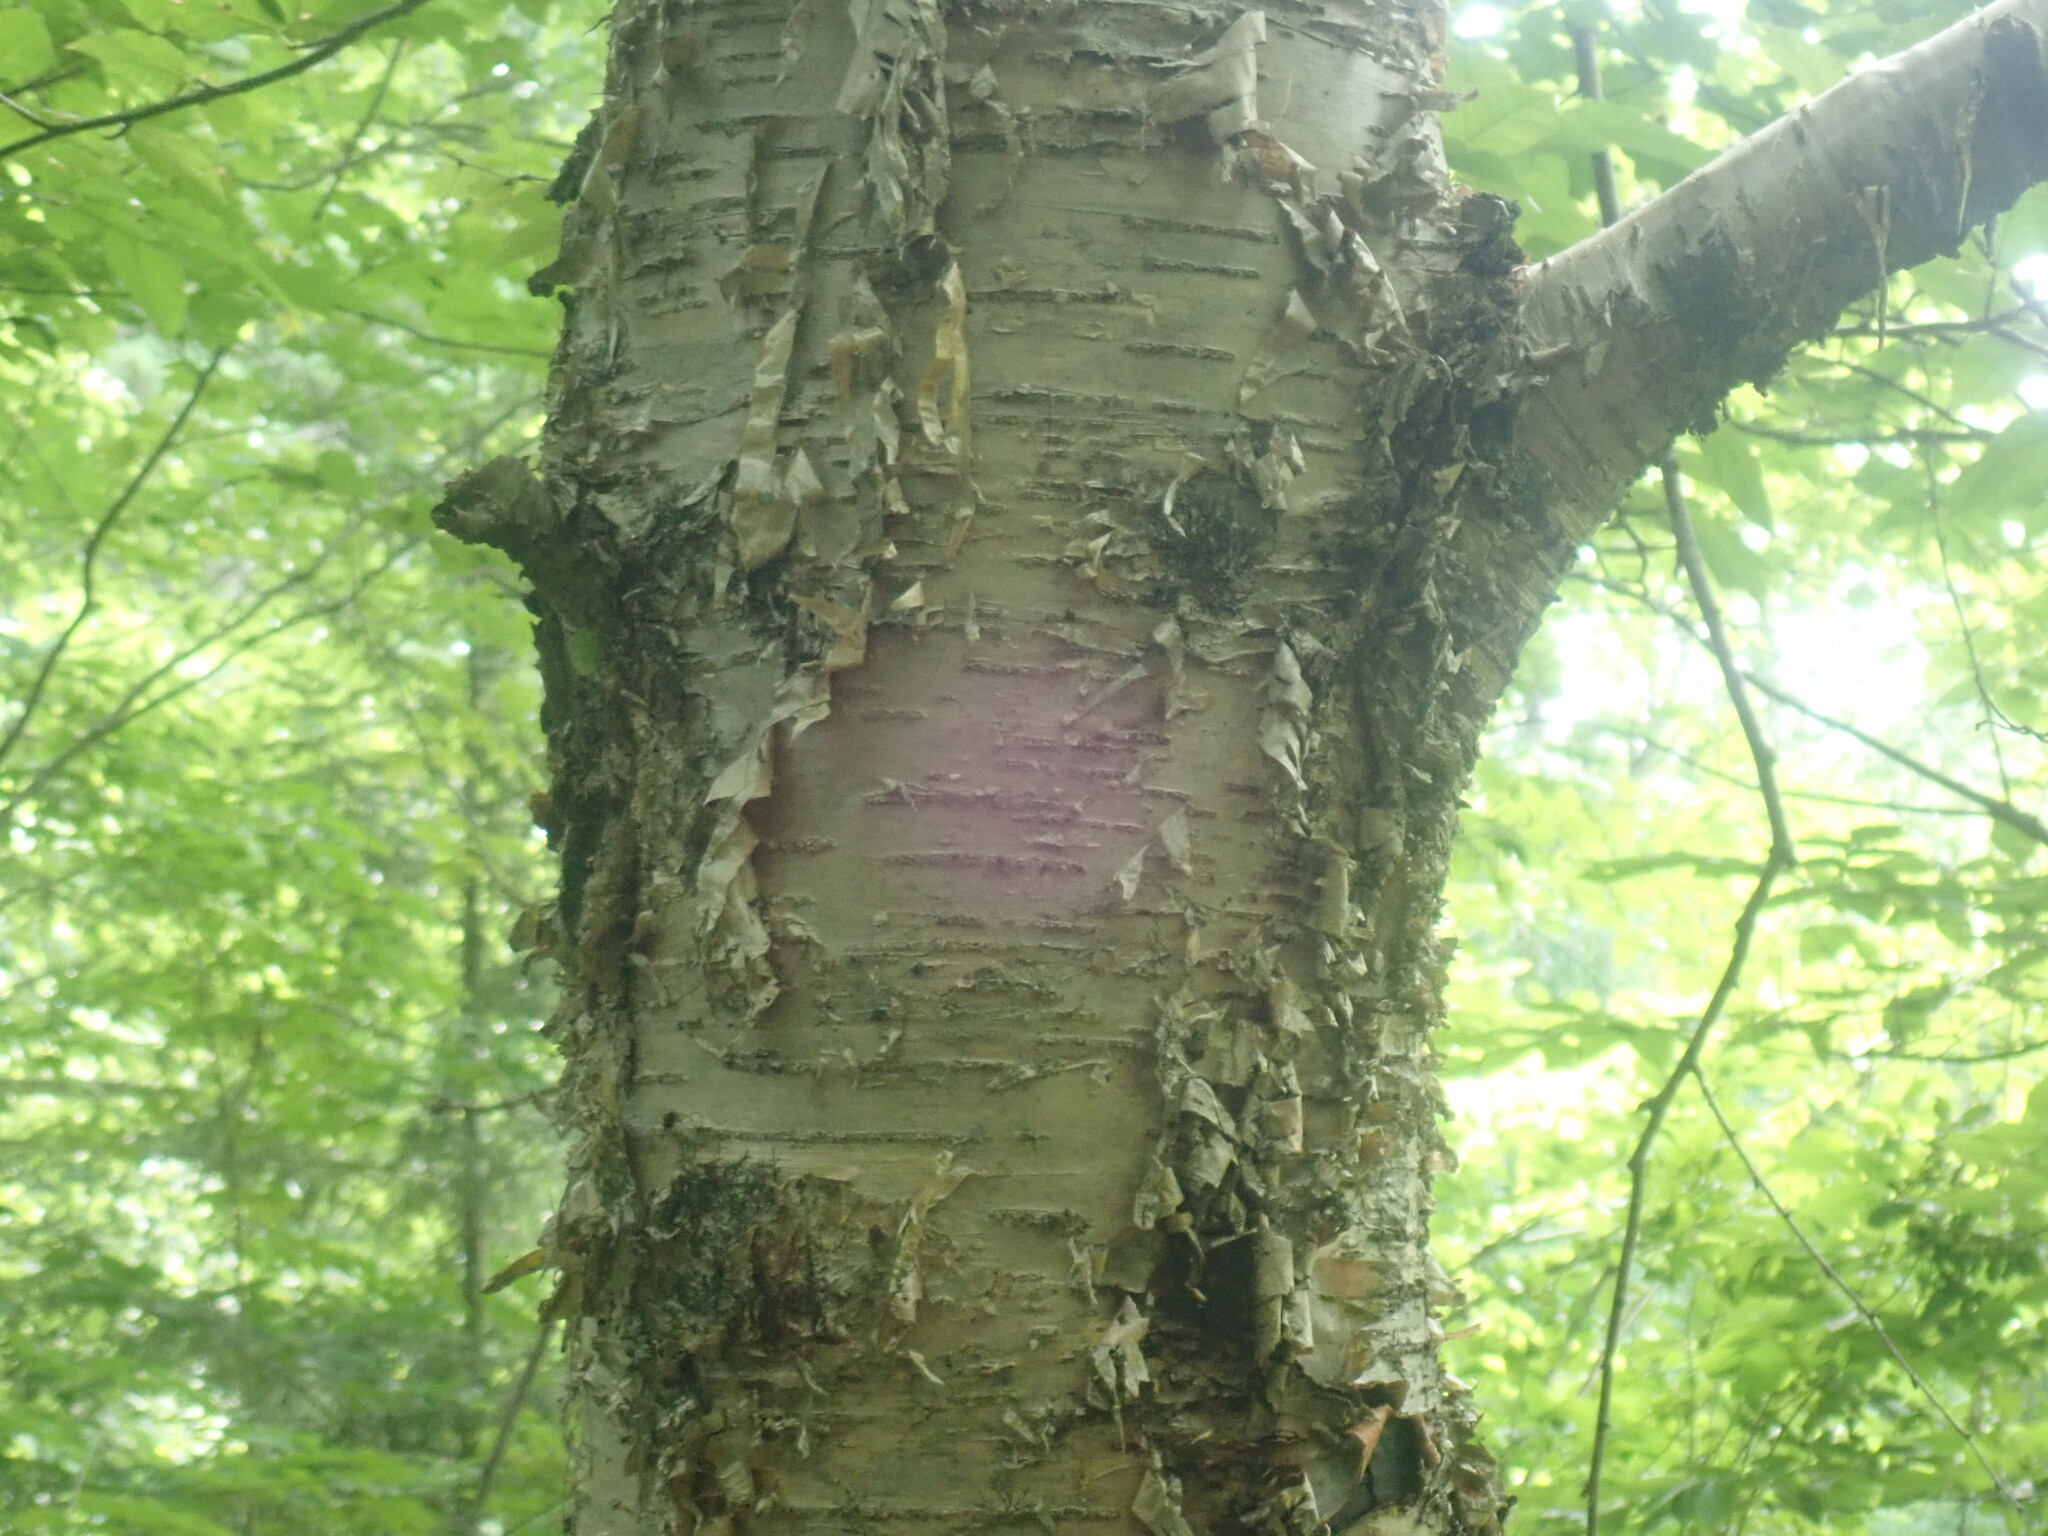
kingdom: Plantae
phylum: Tracheophyta
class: Magnoliopsida
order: Fagales
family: Betulaceae
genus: Betula
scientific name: Betula alleghaniensis
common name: Yellow birch
